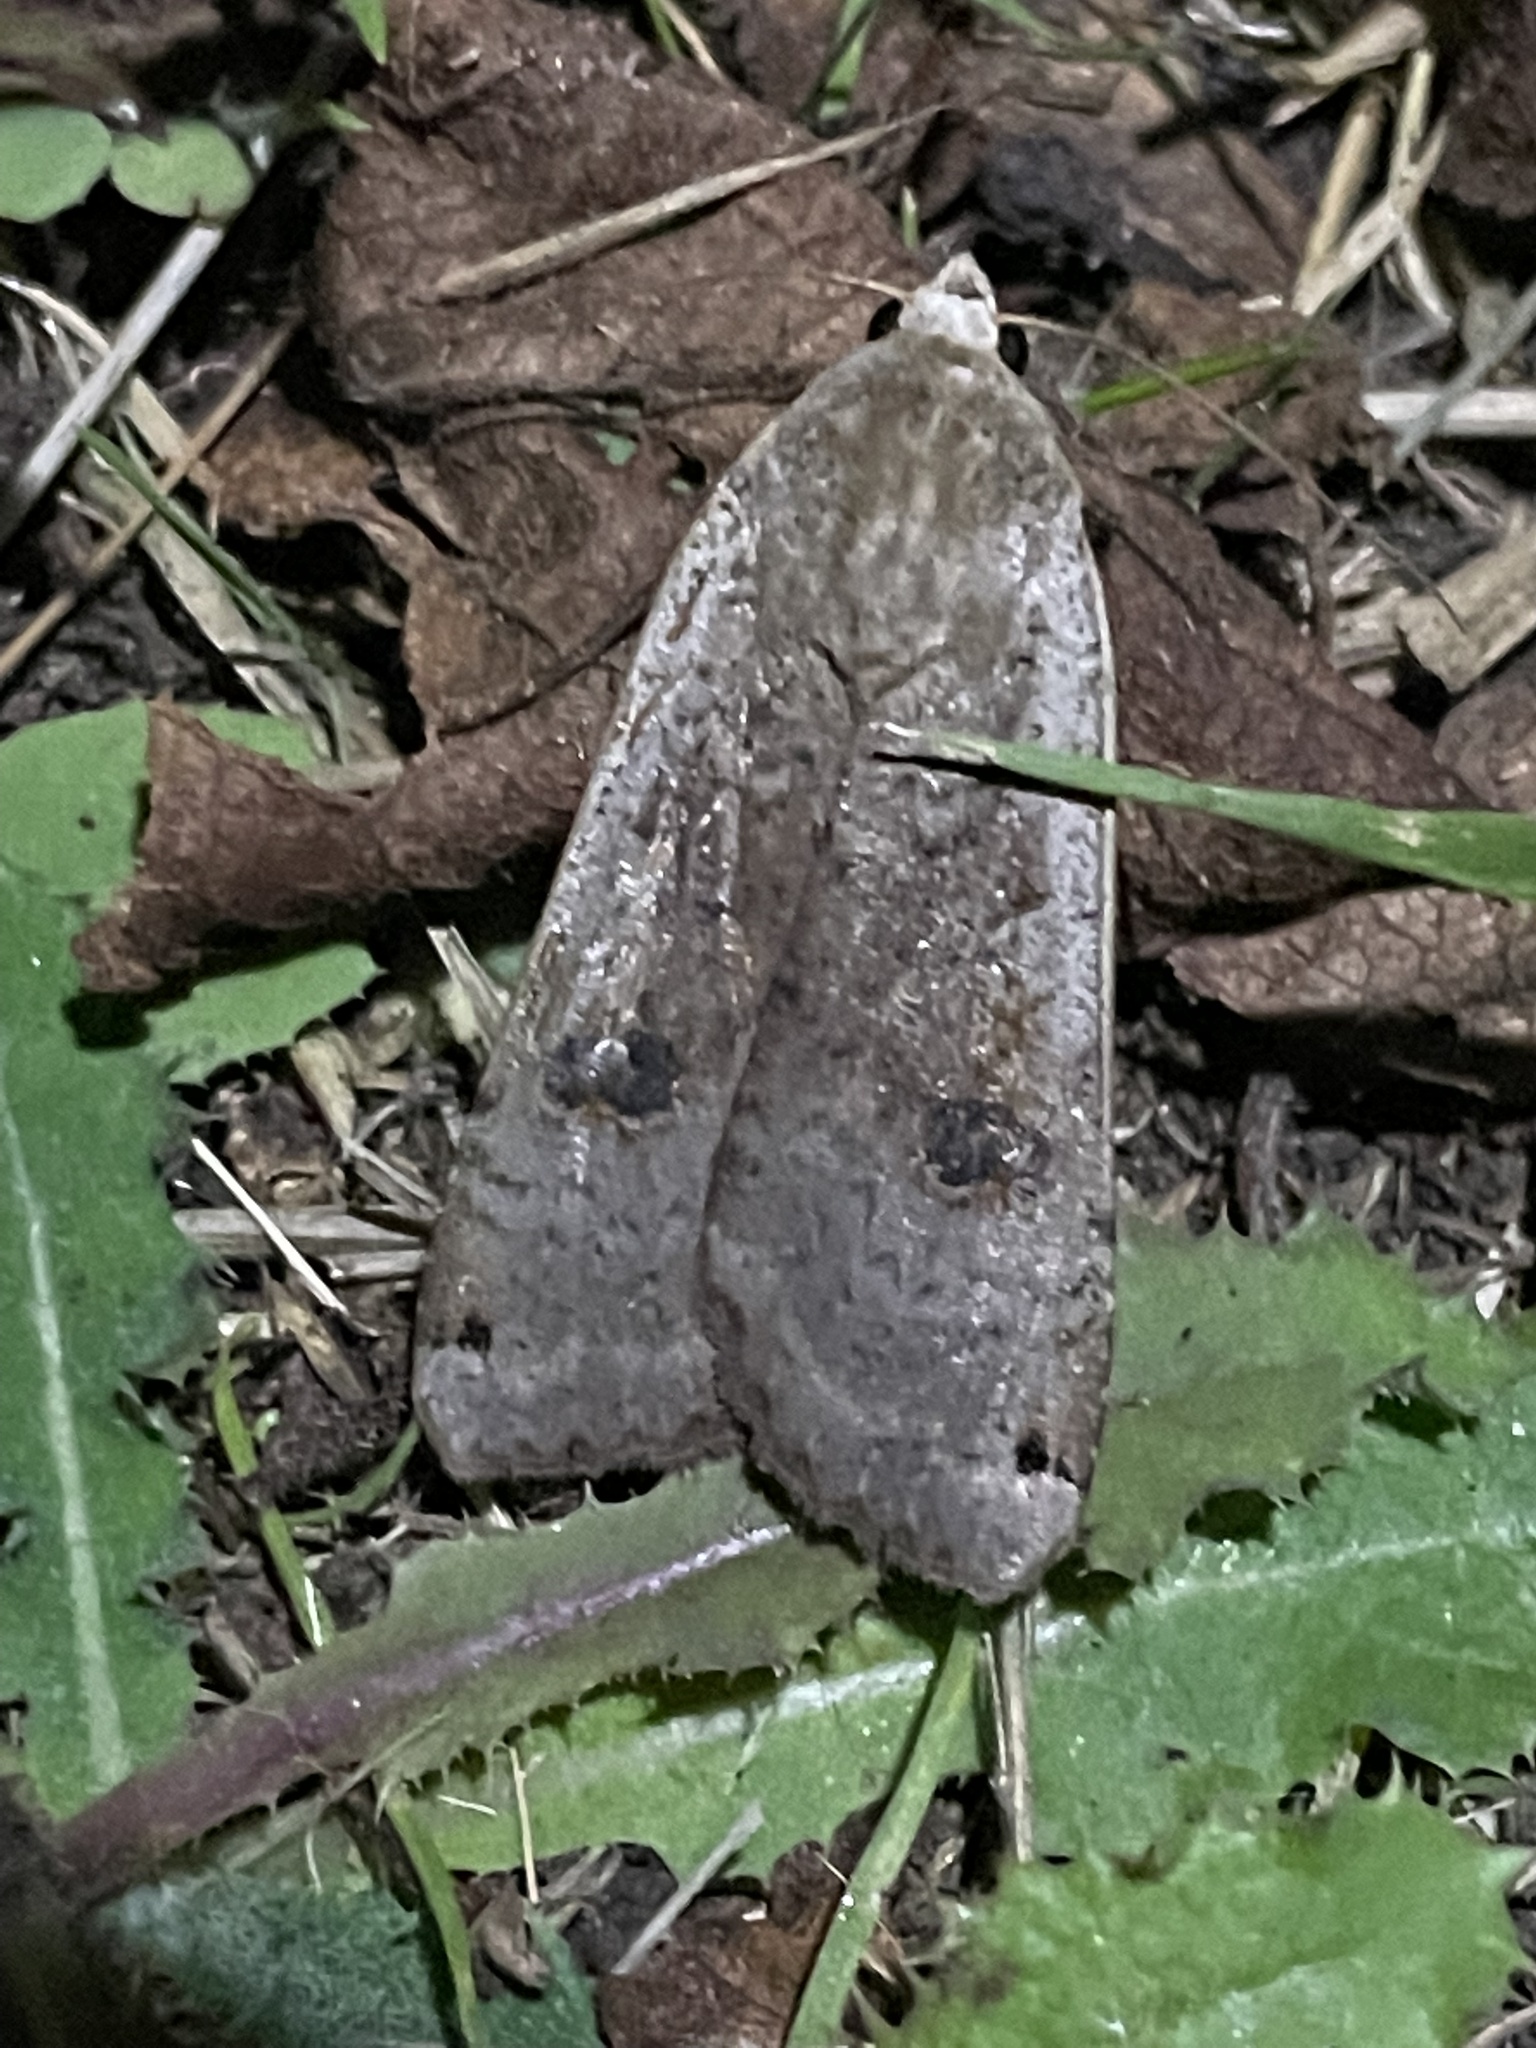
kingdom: Animalia
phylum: Arthropoda
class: Insecta
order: Lepidoptera
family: Noctuidae
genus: Noctua
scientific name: Noctua pronuba
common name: Large yellow underwing
